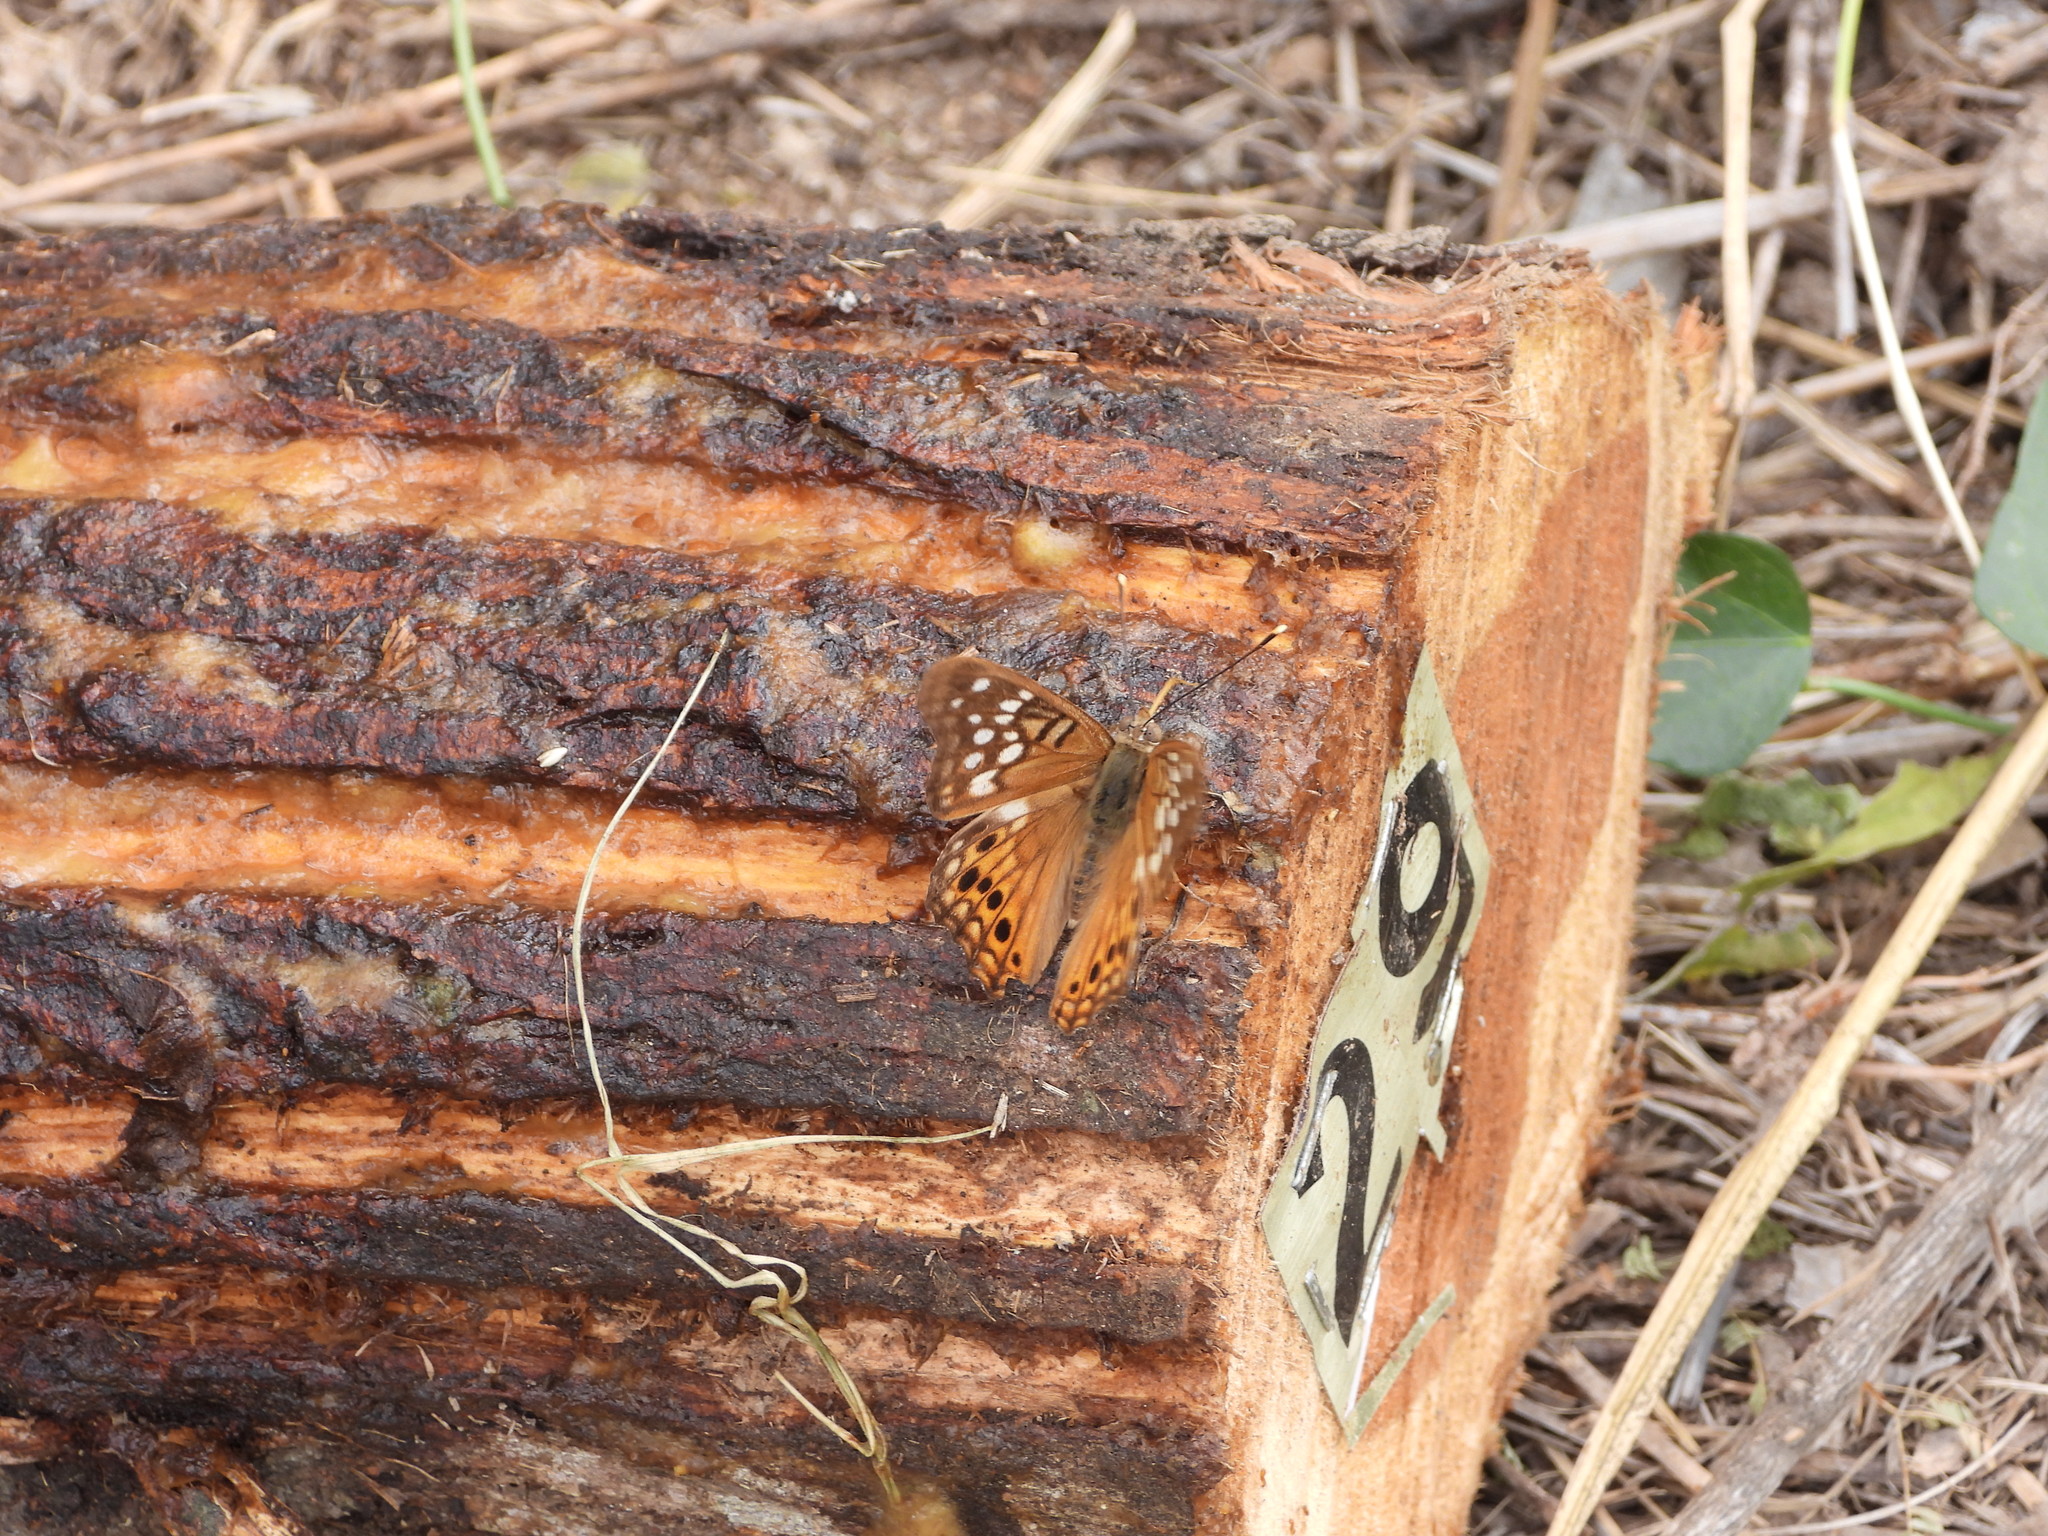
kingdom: Animalia
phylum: Arthropoda
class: Insecta
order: Lepidoptera
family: Nymphalidae
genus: Asterocampa
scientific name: Asterocampa clyton
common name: Tawny emperor
